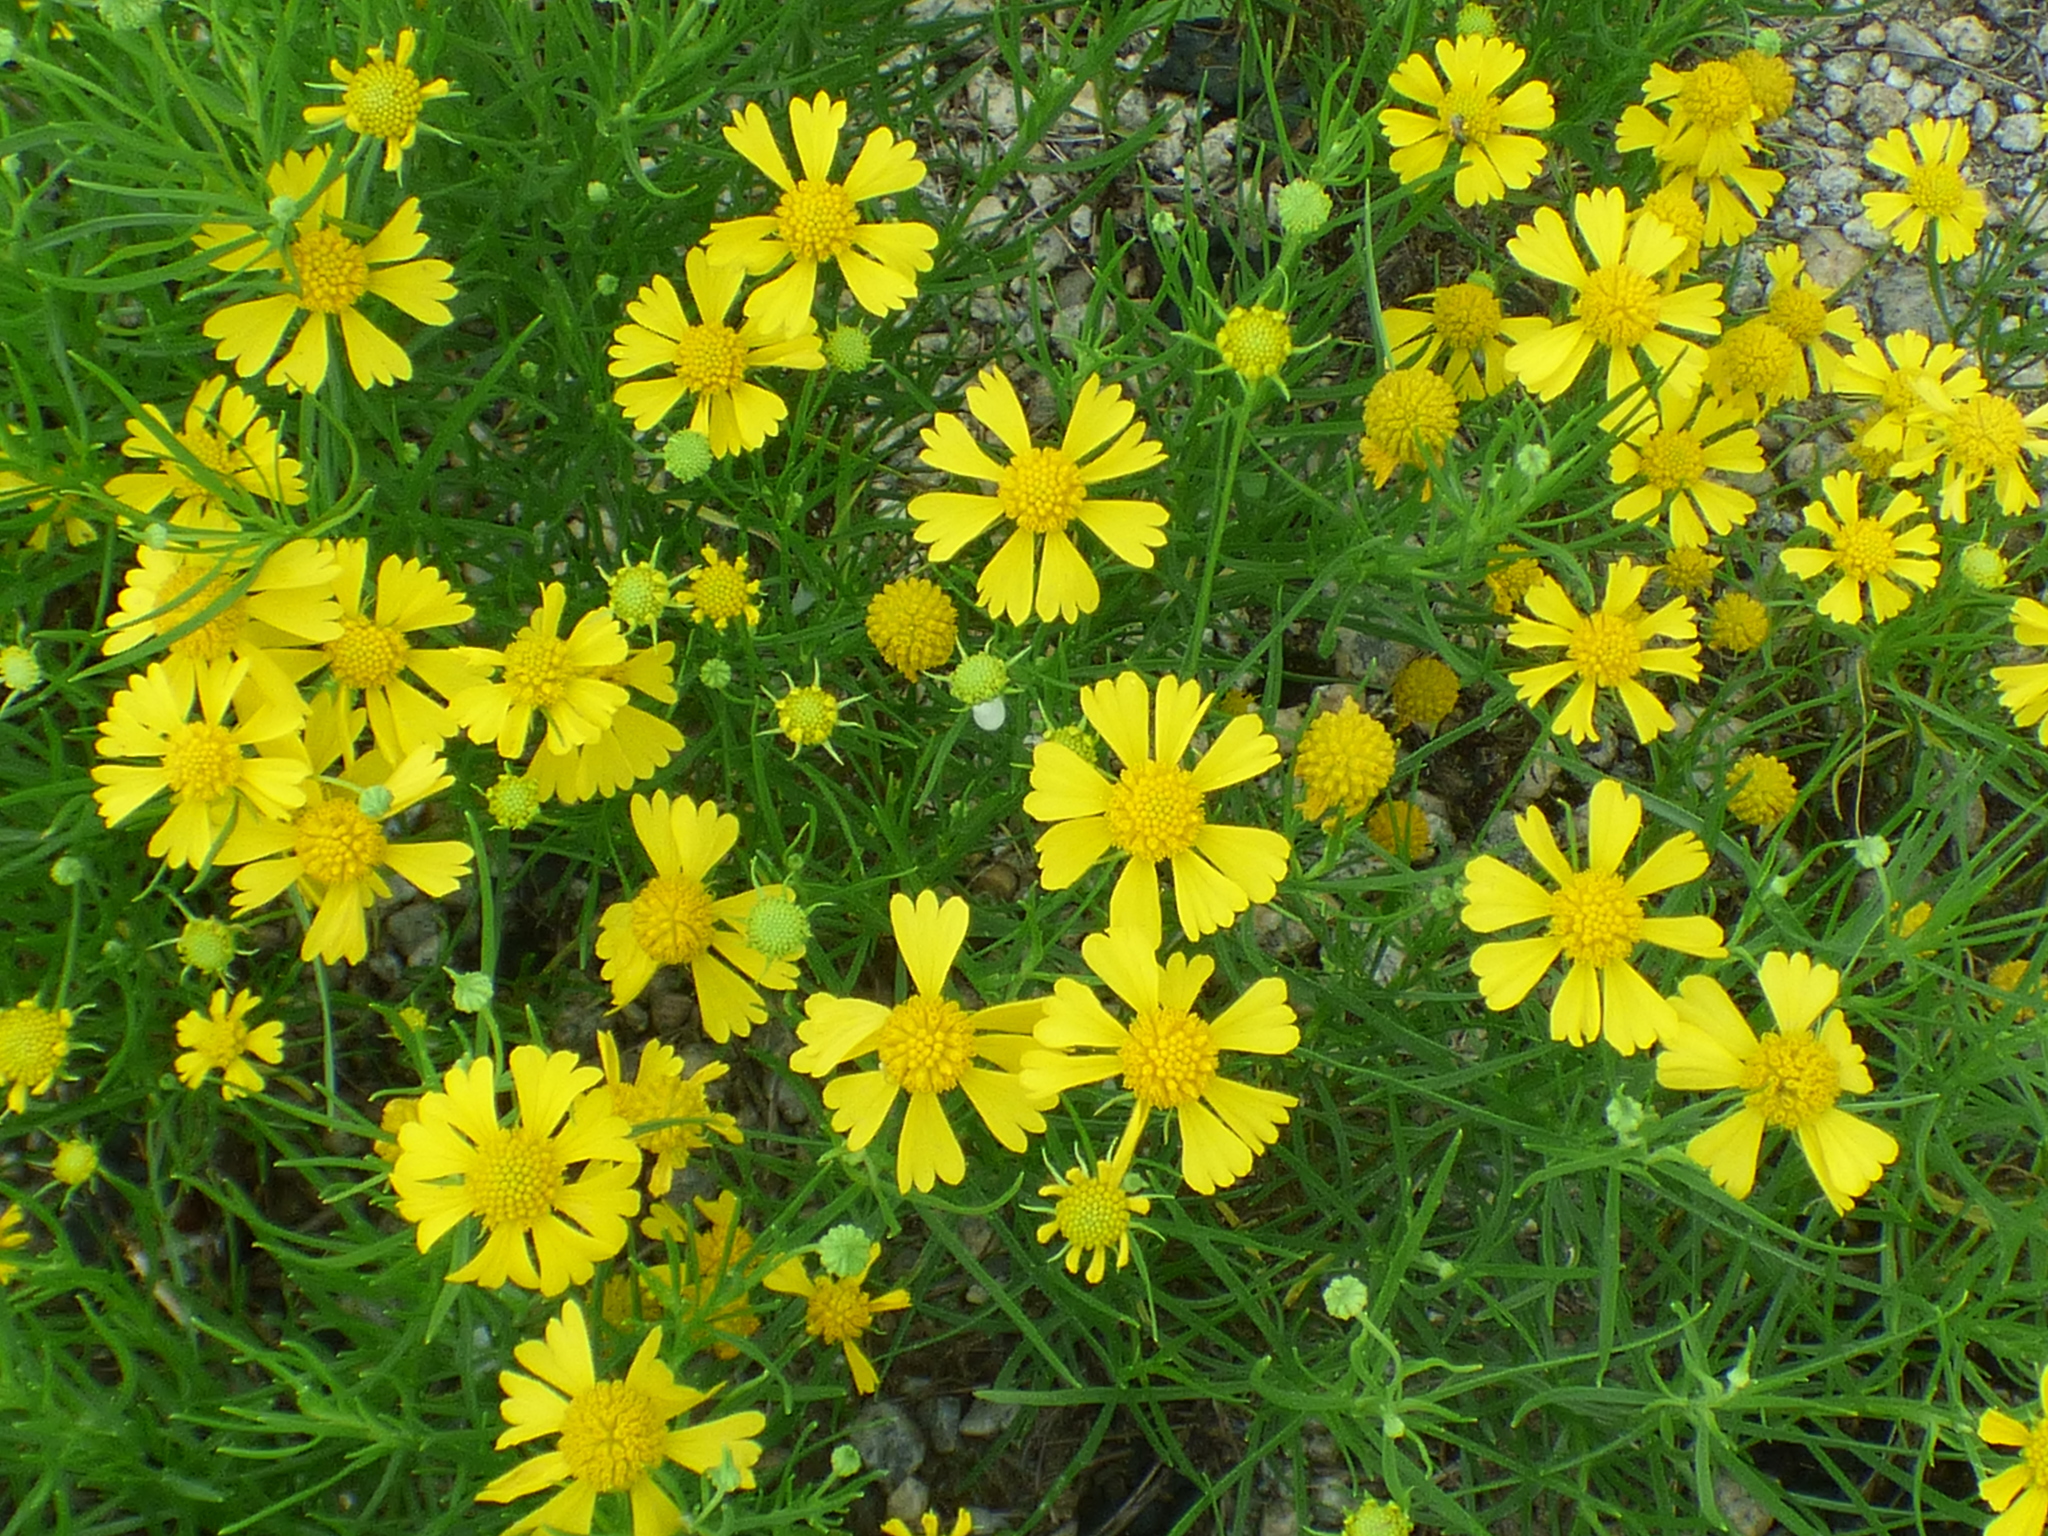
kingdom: Plantae
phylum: Tracheophyta
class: Magnoliopsida
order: Asterales
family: Asteraceae
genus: Helenium
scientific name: Helenium amarum
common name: Bitter sneezeweed
